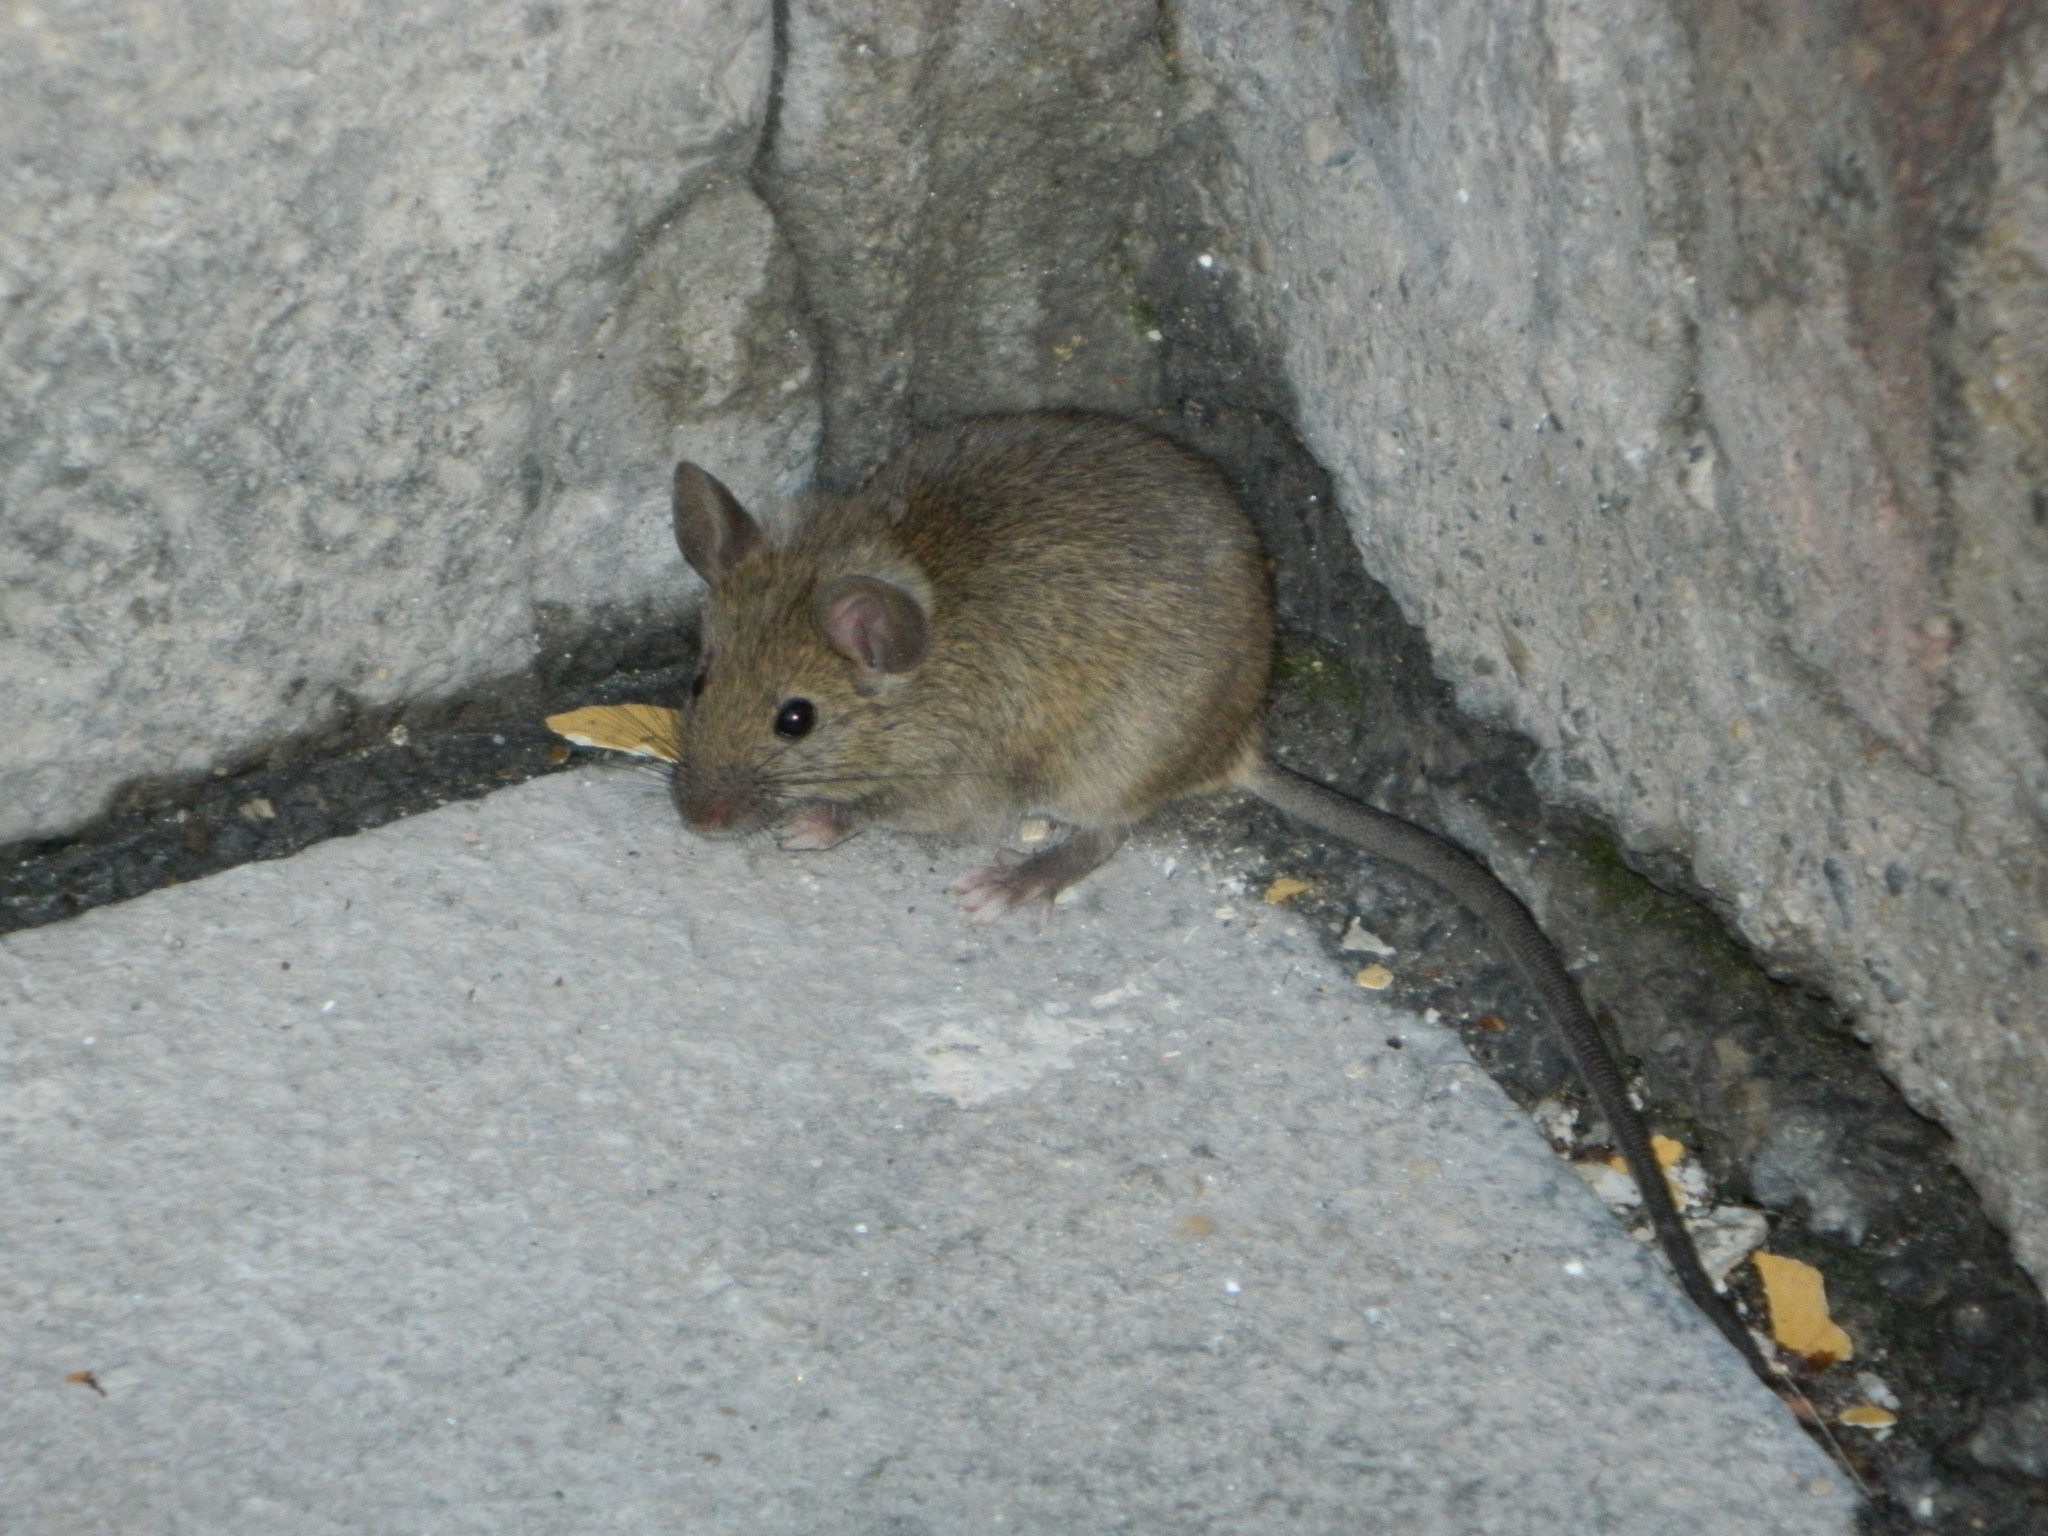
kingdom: Animalia
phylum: Chordata
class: Mammalia
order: Rodentia
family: Muridae
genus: Mus
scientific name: Mus musculus
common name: House mouse
